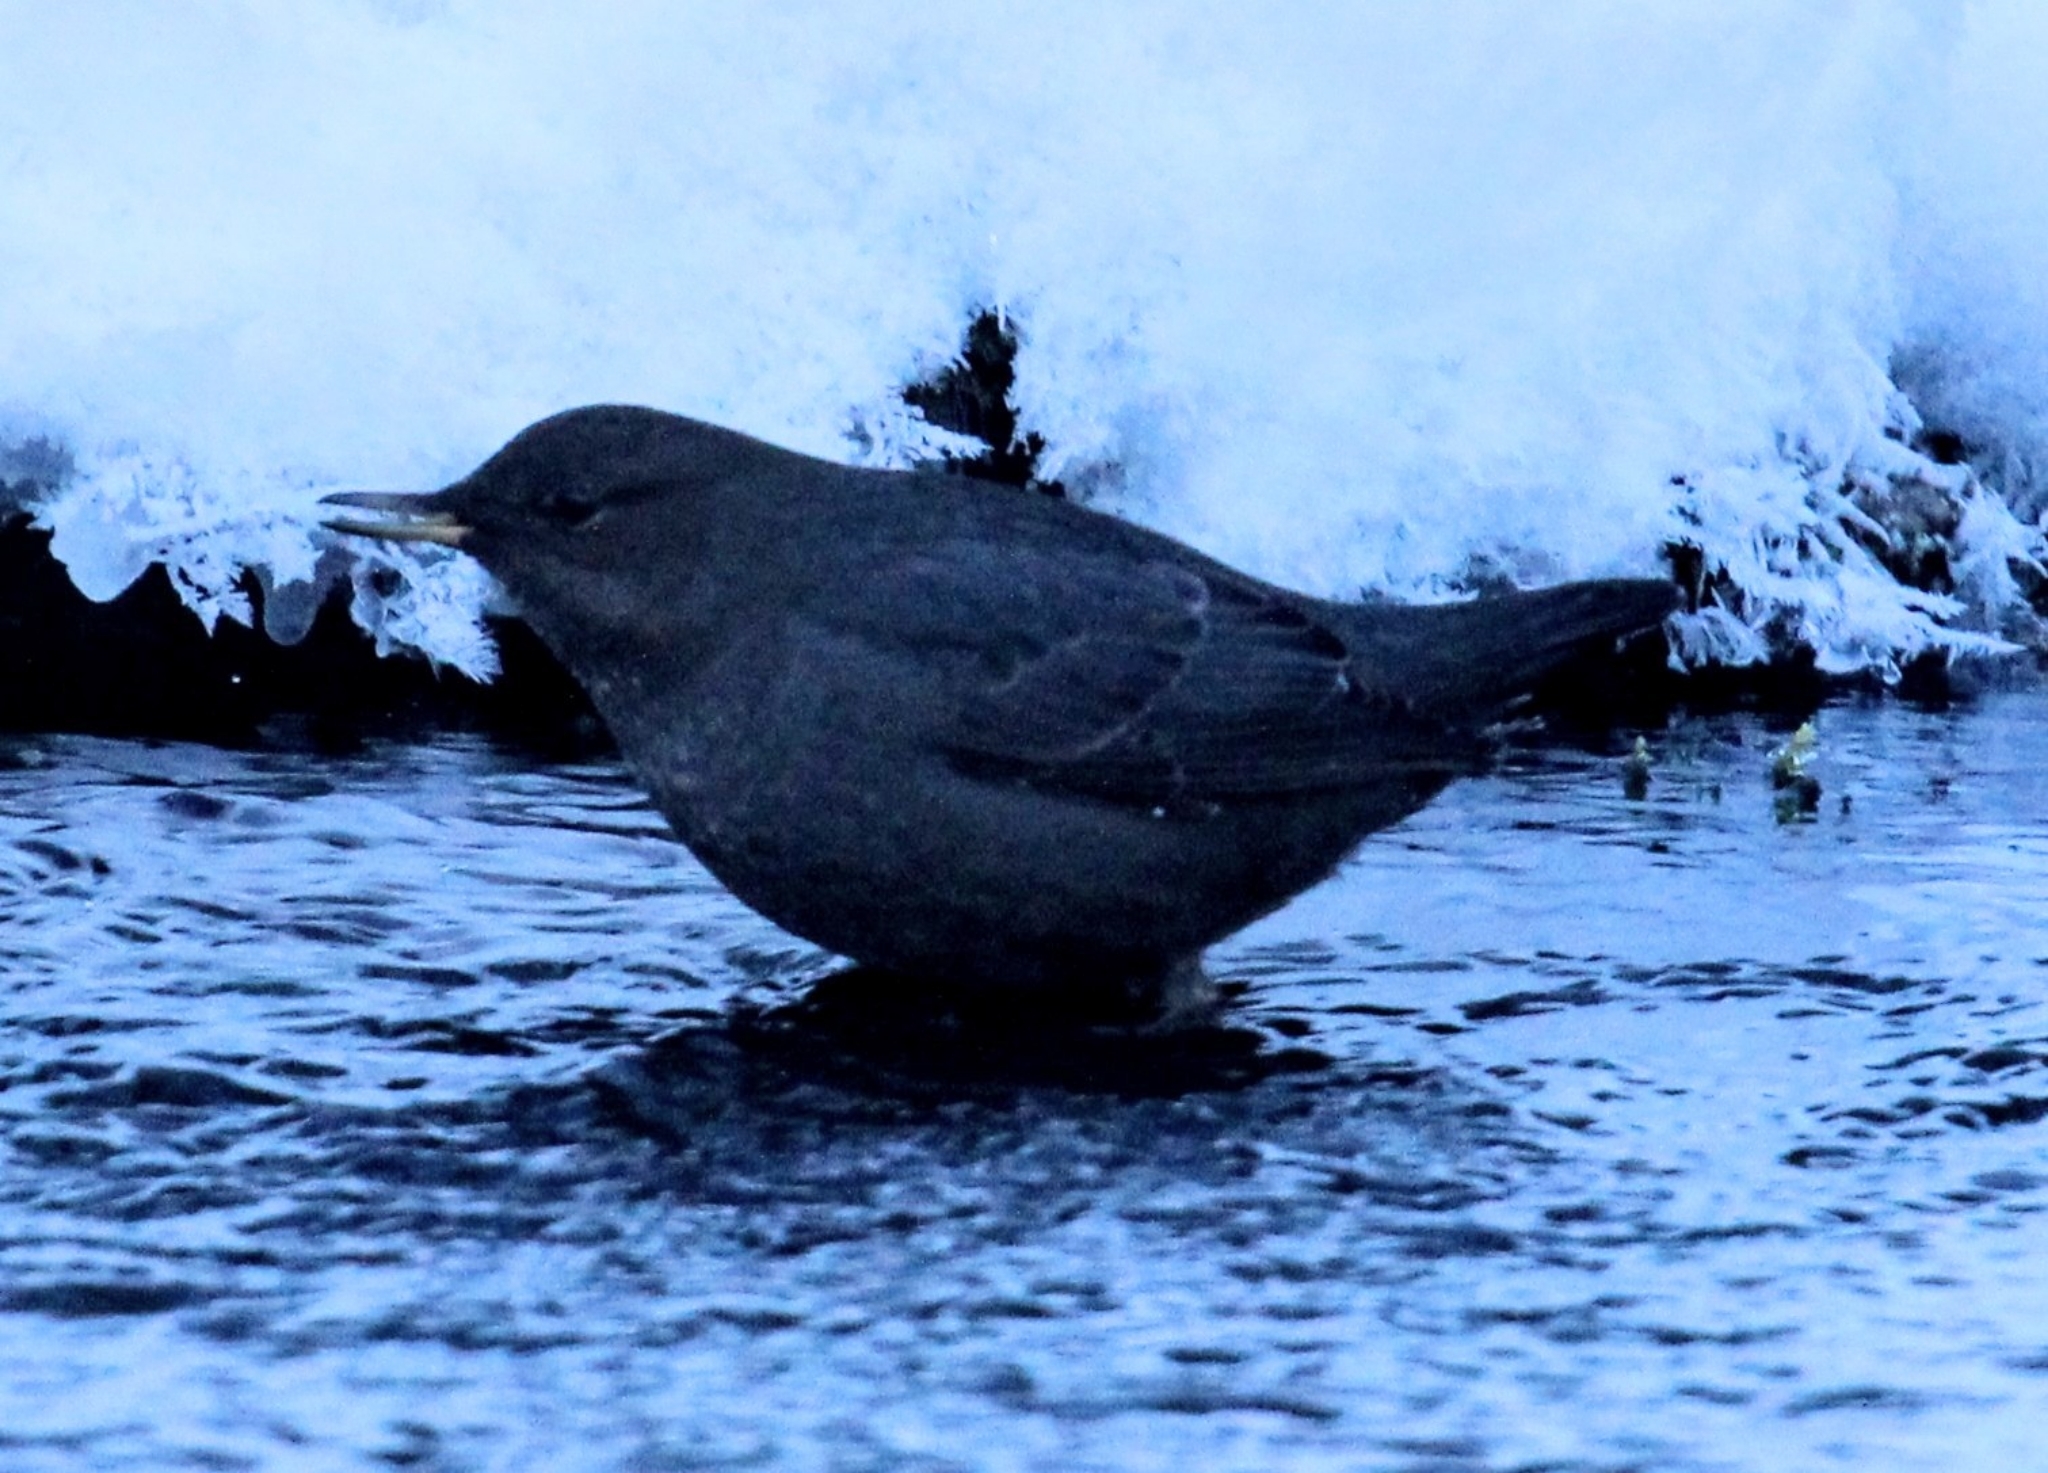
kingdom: Animalia
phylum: Chordata
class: Aves
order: Passeriformes
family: Cinclidae
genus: Cinclus
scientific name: Cinclus mexicanus
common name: American dipper
